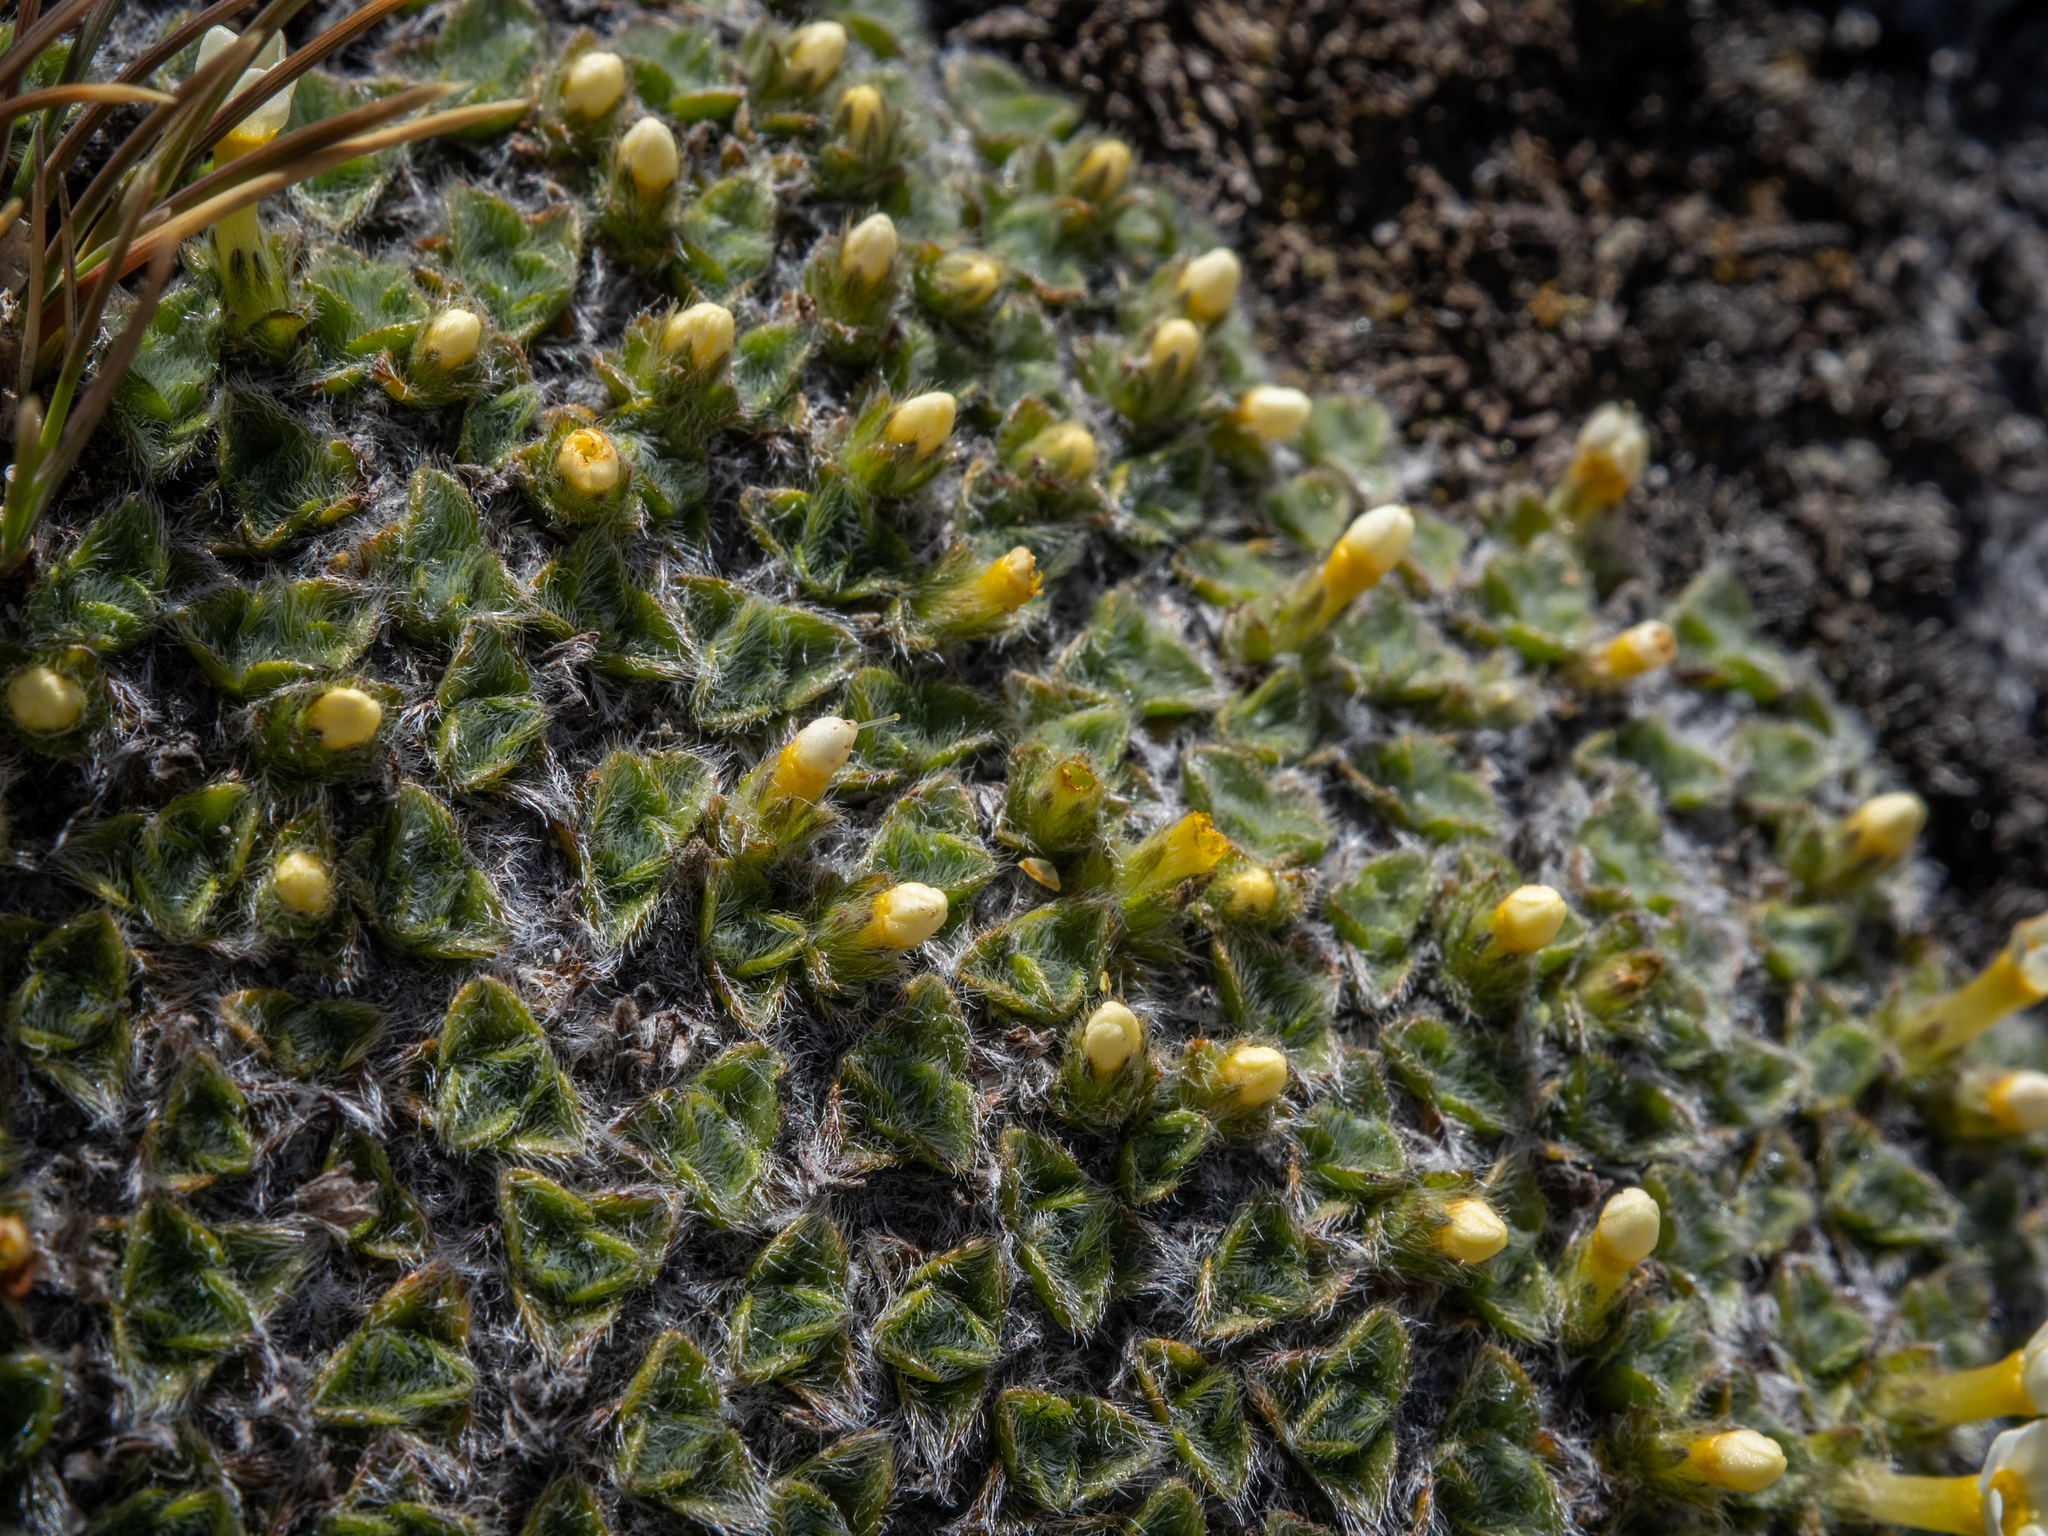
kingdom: Plantae
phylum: Tracheophyta
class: Magnoliopsida
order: Boraginales
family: Boraginaceae
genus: Myosotis
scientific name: Myosotis pulvinaris
